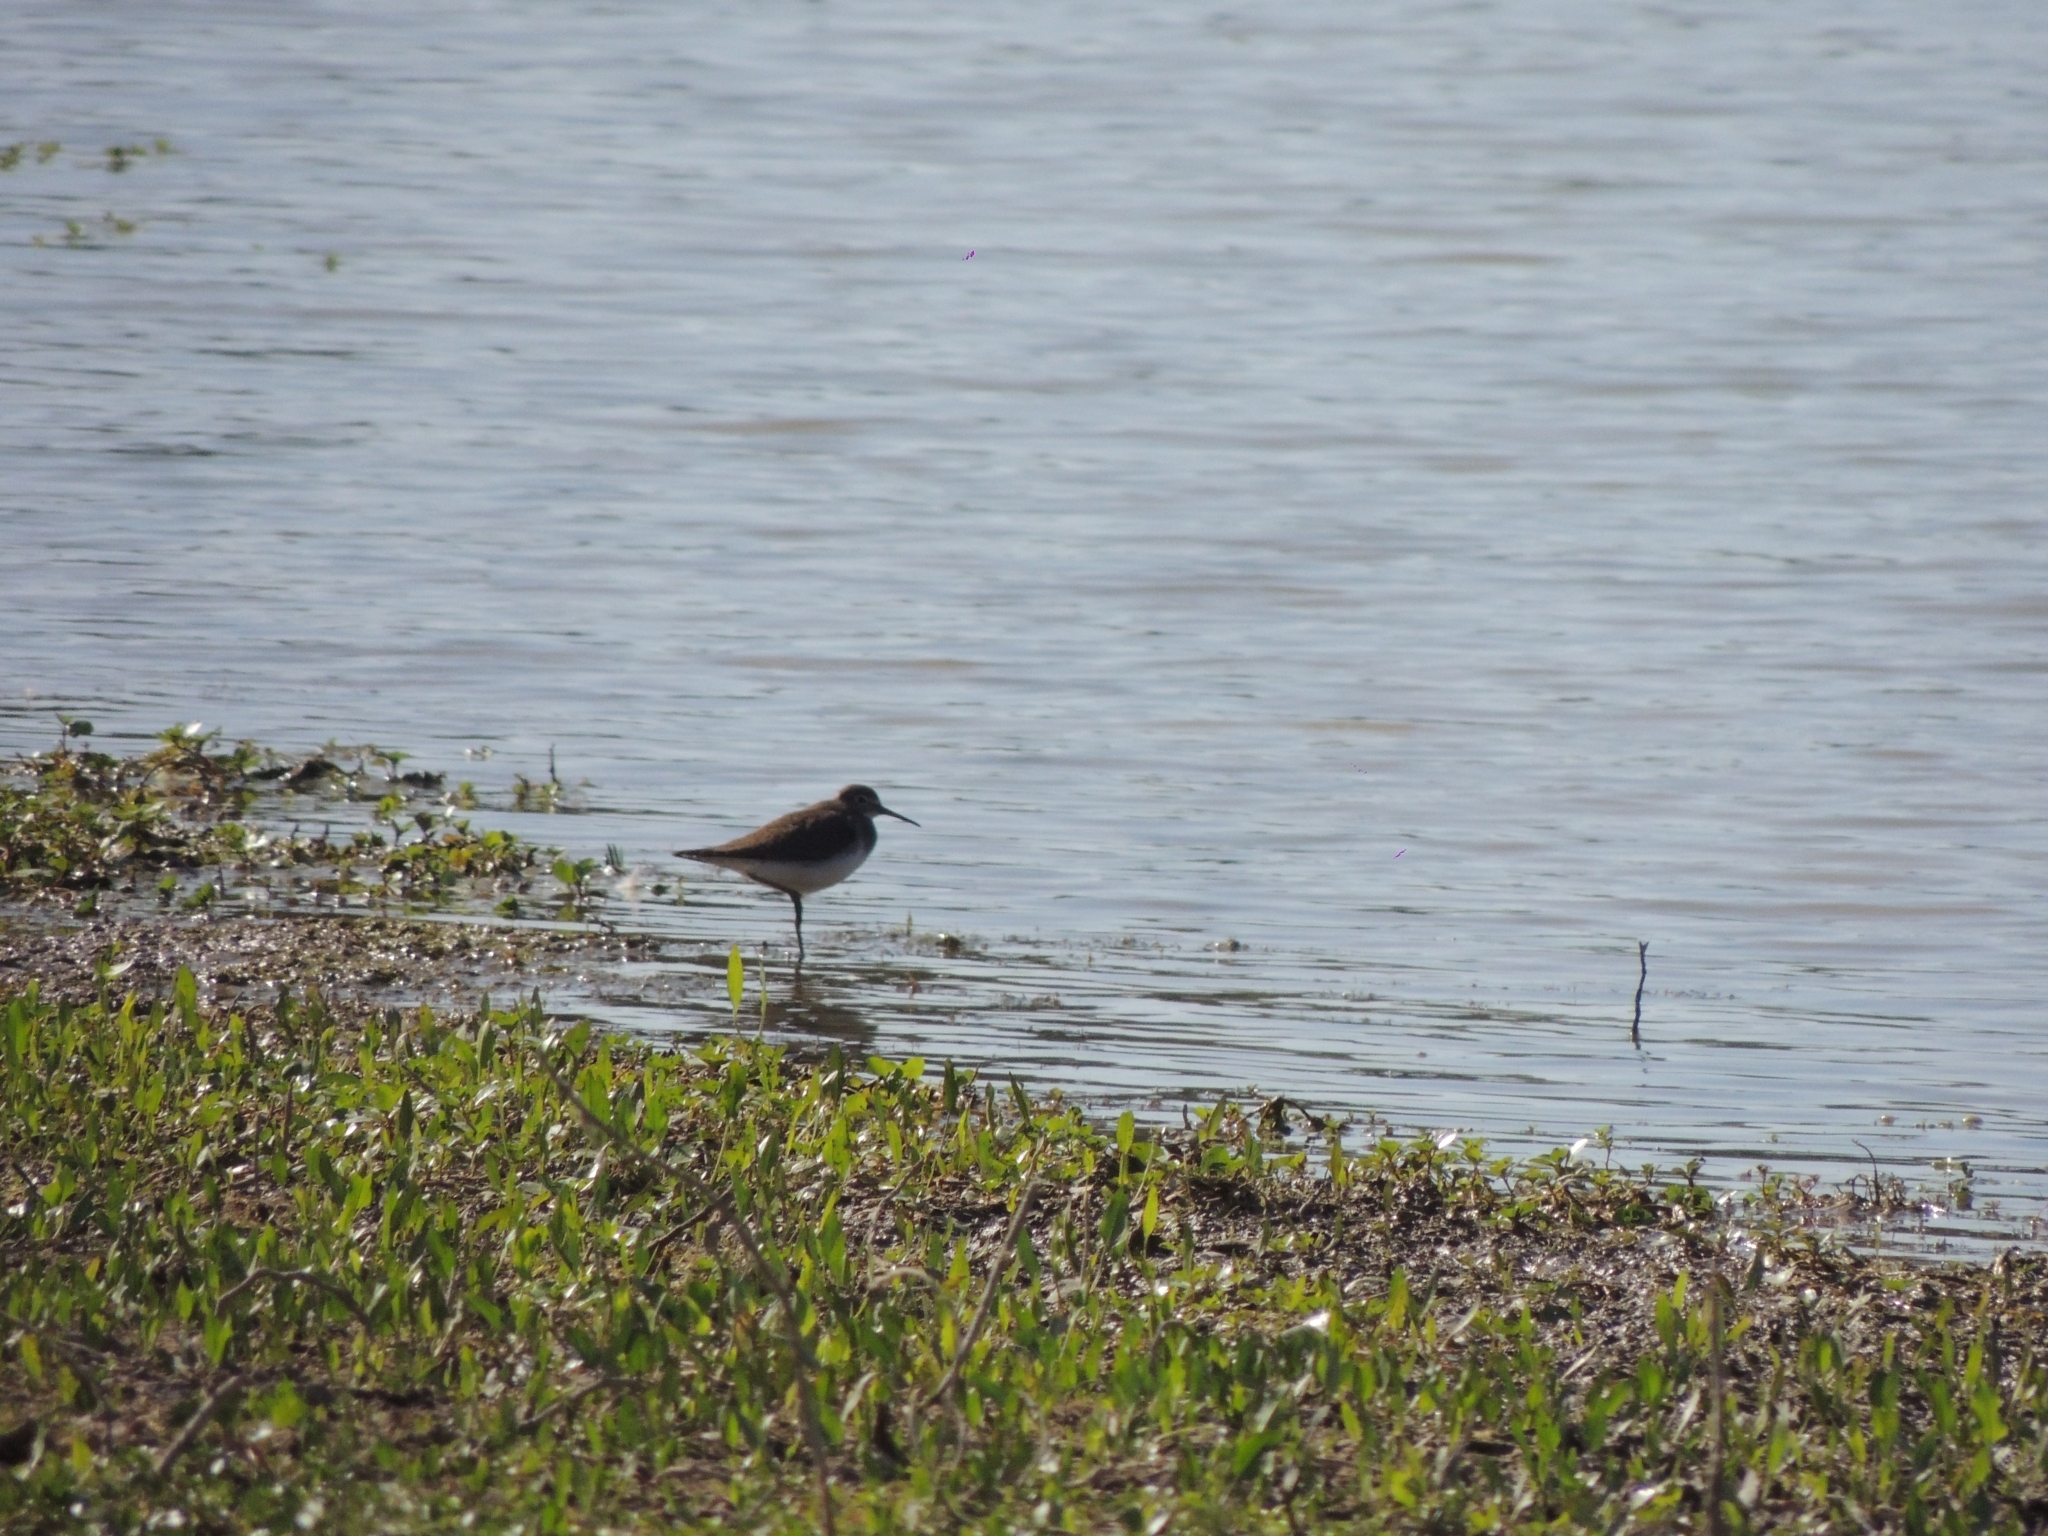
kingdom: Animalia
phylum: Chordata
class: Aves
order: Charadriiformes
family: Scolopacidae
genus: Tringa
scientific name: Tringa solitaria
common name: Solitary sandpiper
